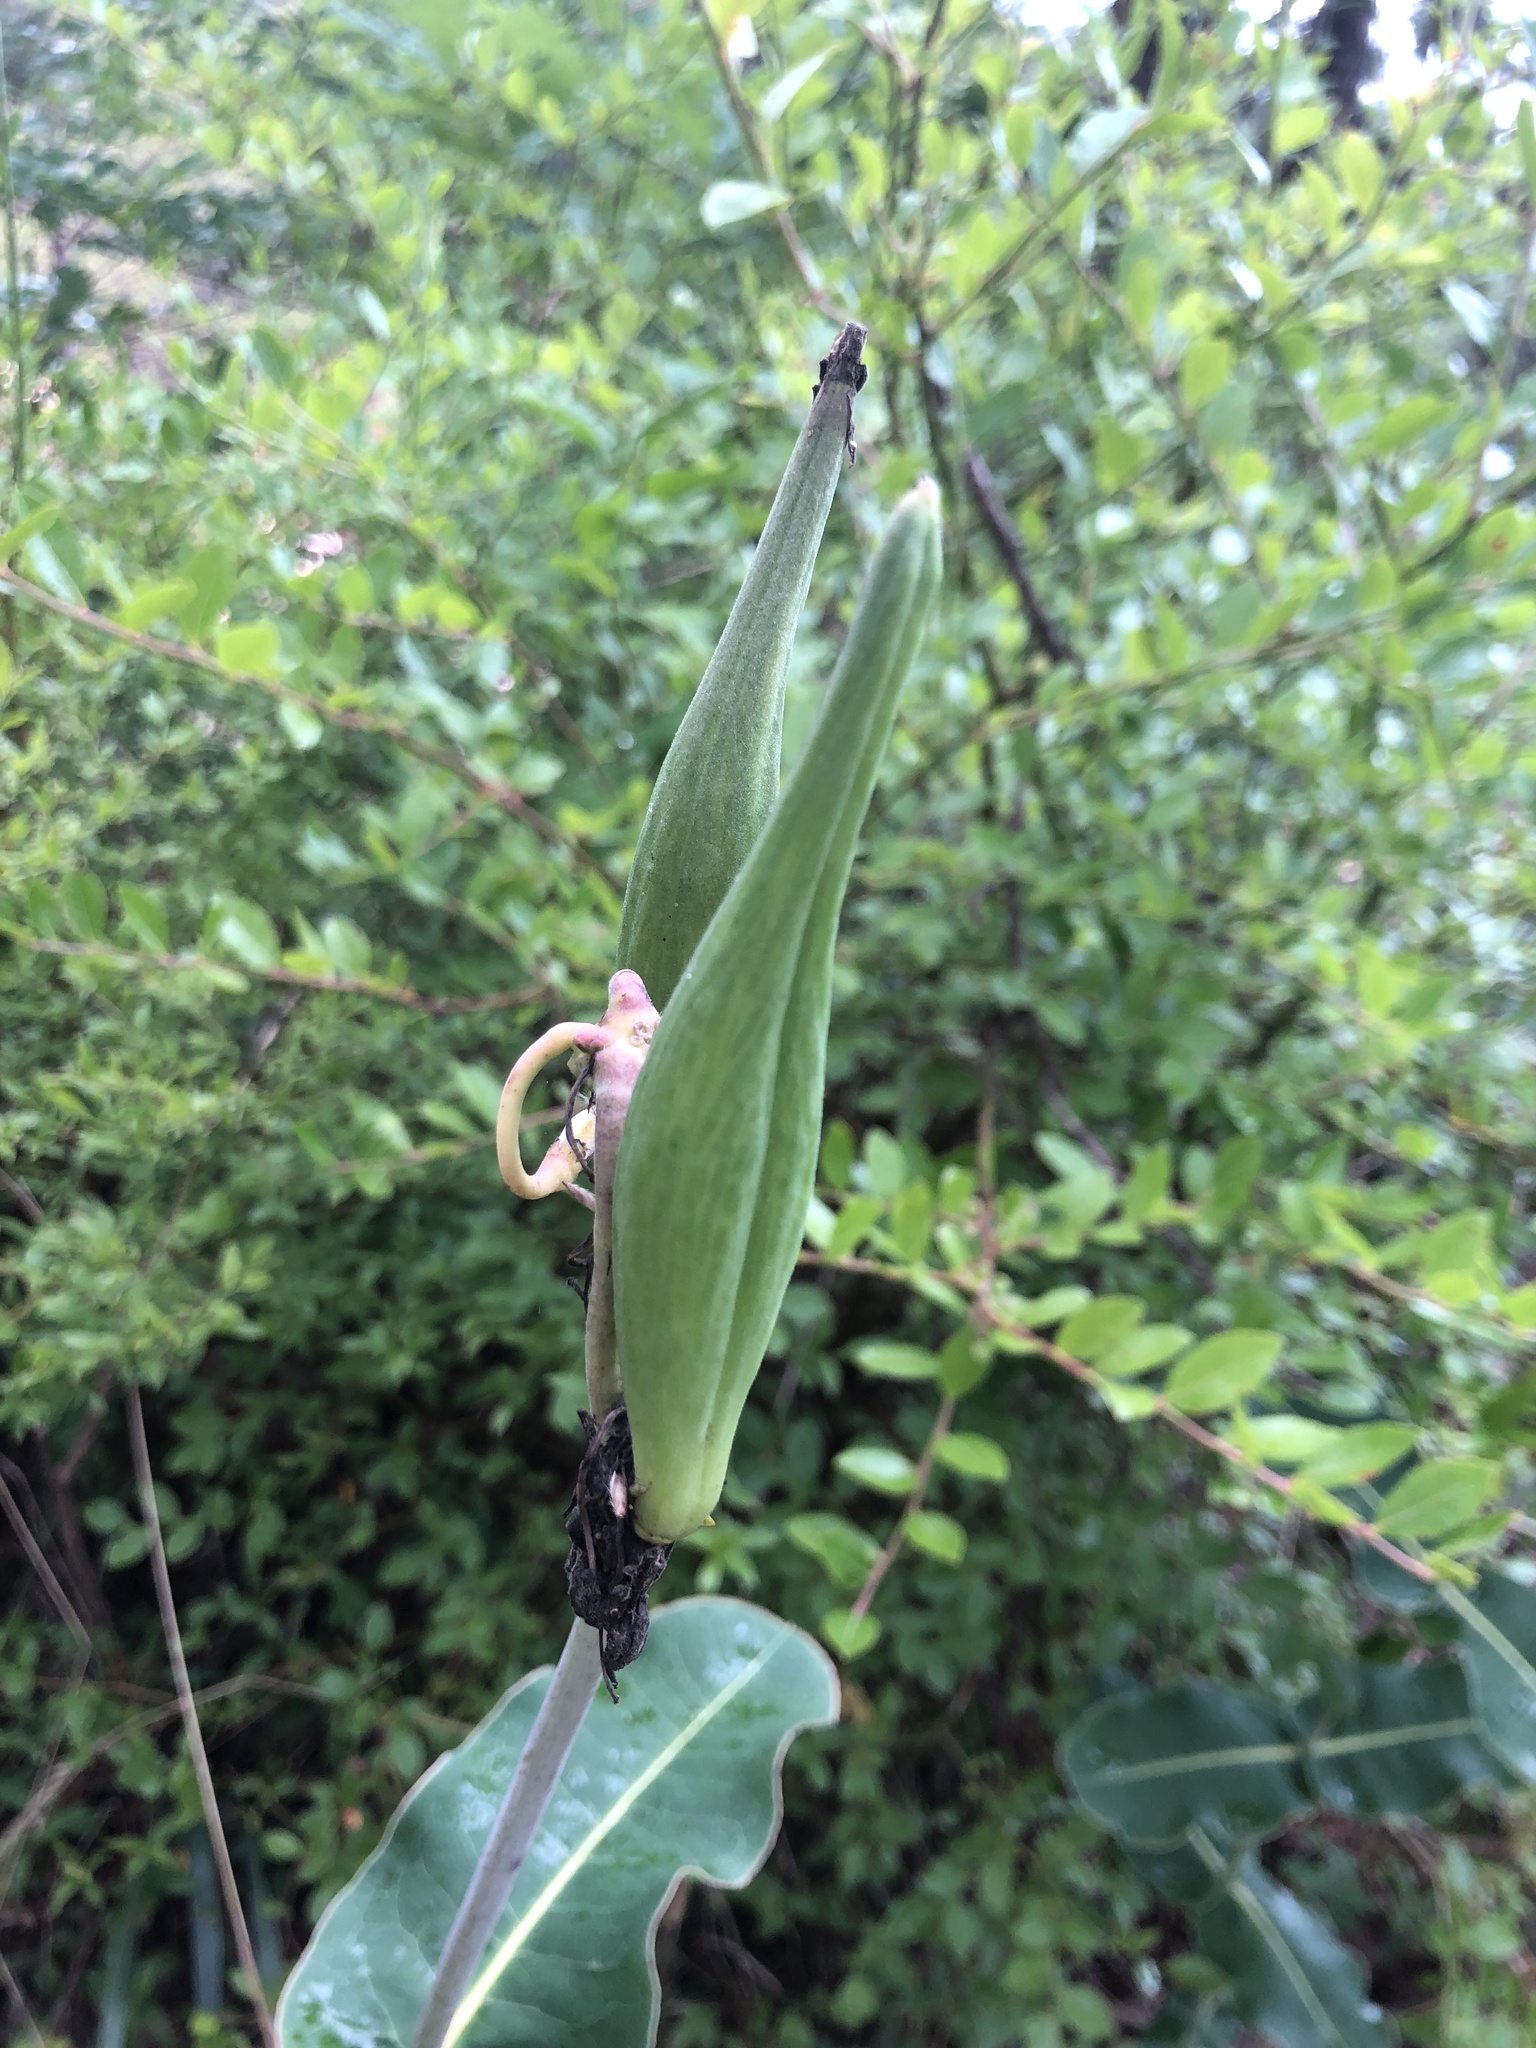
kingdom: Plantae
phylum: Tracheophyta
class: Magnoliopsida
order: Gentianales
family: Apocynaceae
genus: Asclepias
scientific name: Asclepias amplexicaulis
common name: Blunt-leaf milkweed
